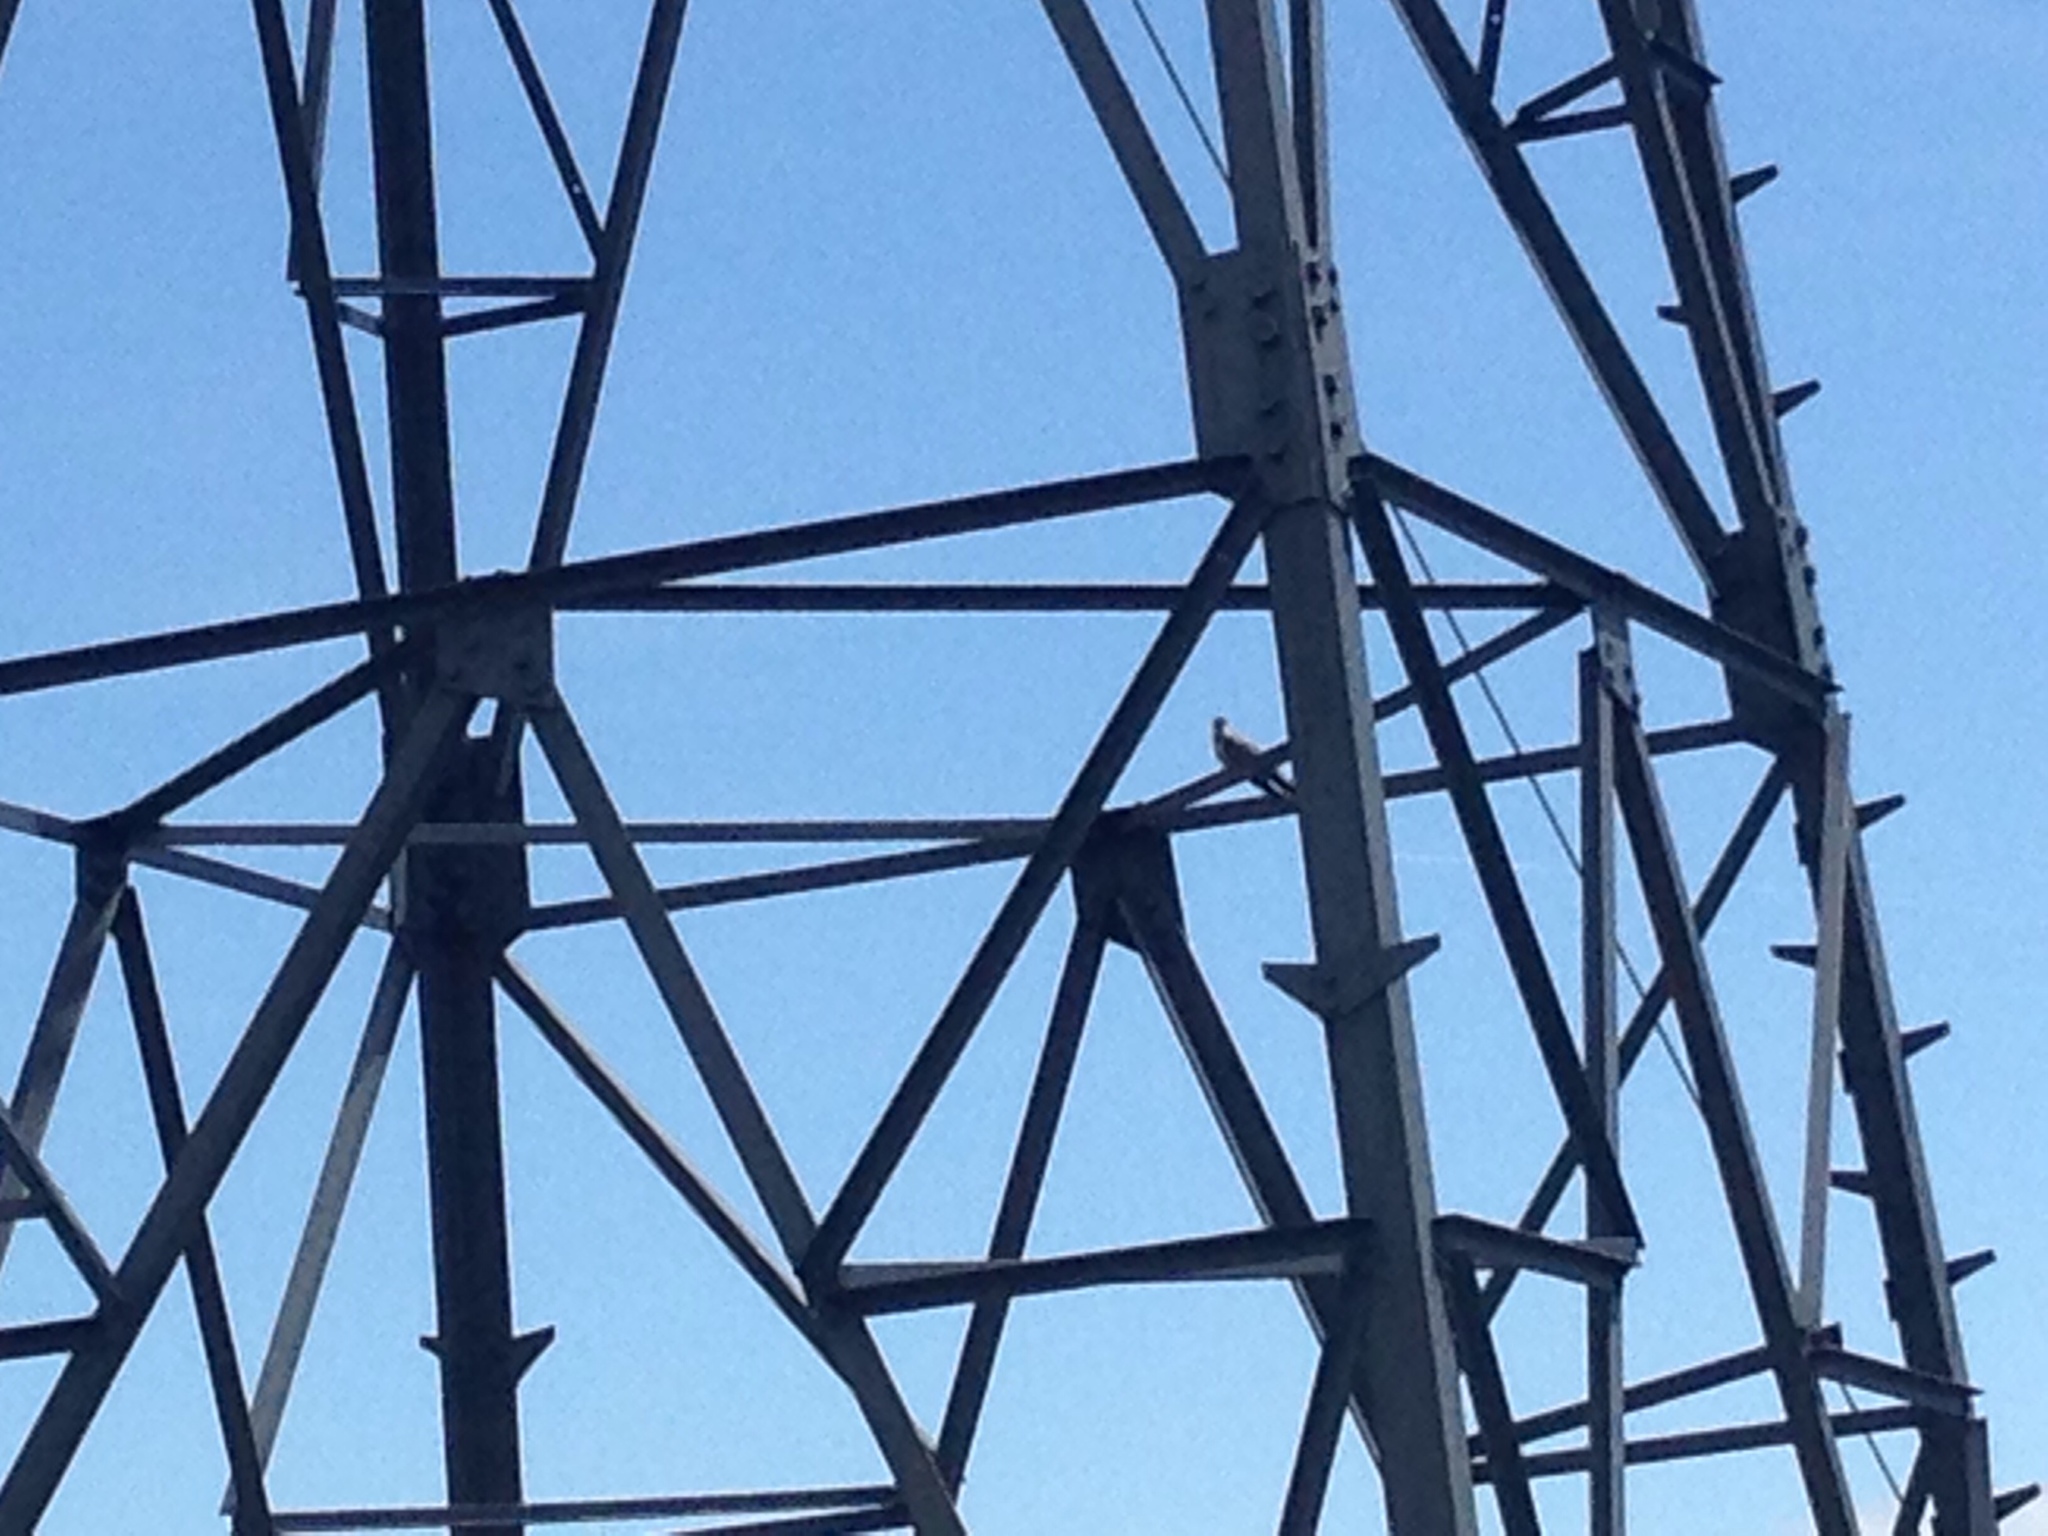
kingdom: Animalia
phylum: Chordata
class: Aves
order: Cuculiformes
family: Cuculidae
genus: Cuculus
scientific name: Cuculus canorus
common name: Common cuckoo
